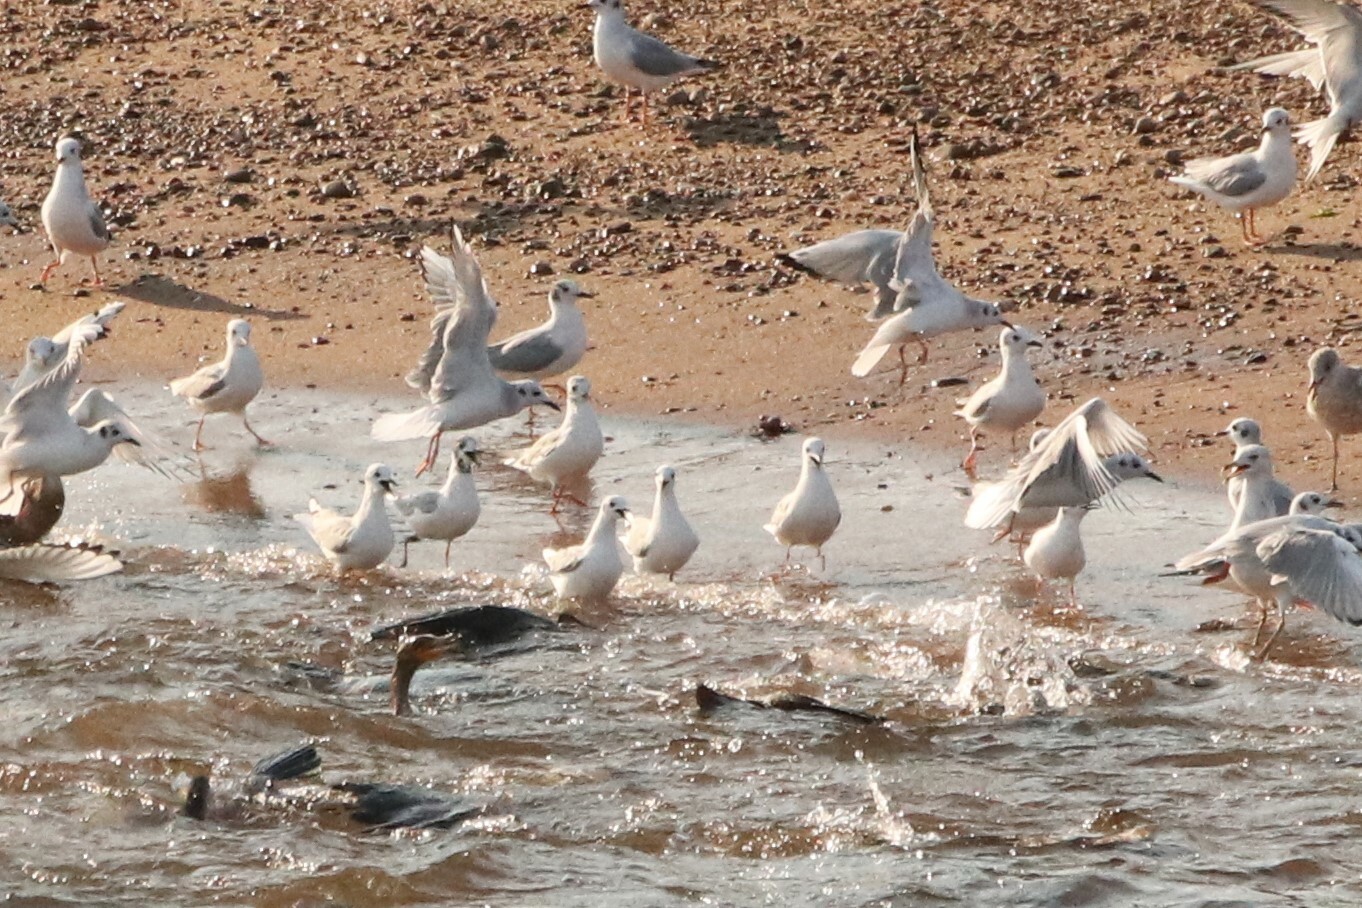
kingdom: Animalia
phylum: Chordata
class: Aves
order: Charadriiformes
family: Laridae
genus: Chroicocephalus
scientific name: Chroicocephalus philadelphia
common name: Bonaparte's gull
